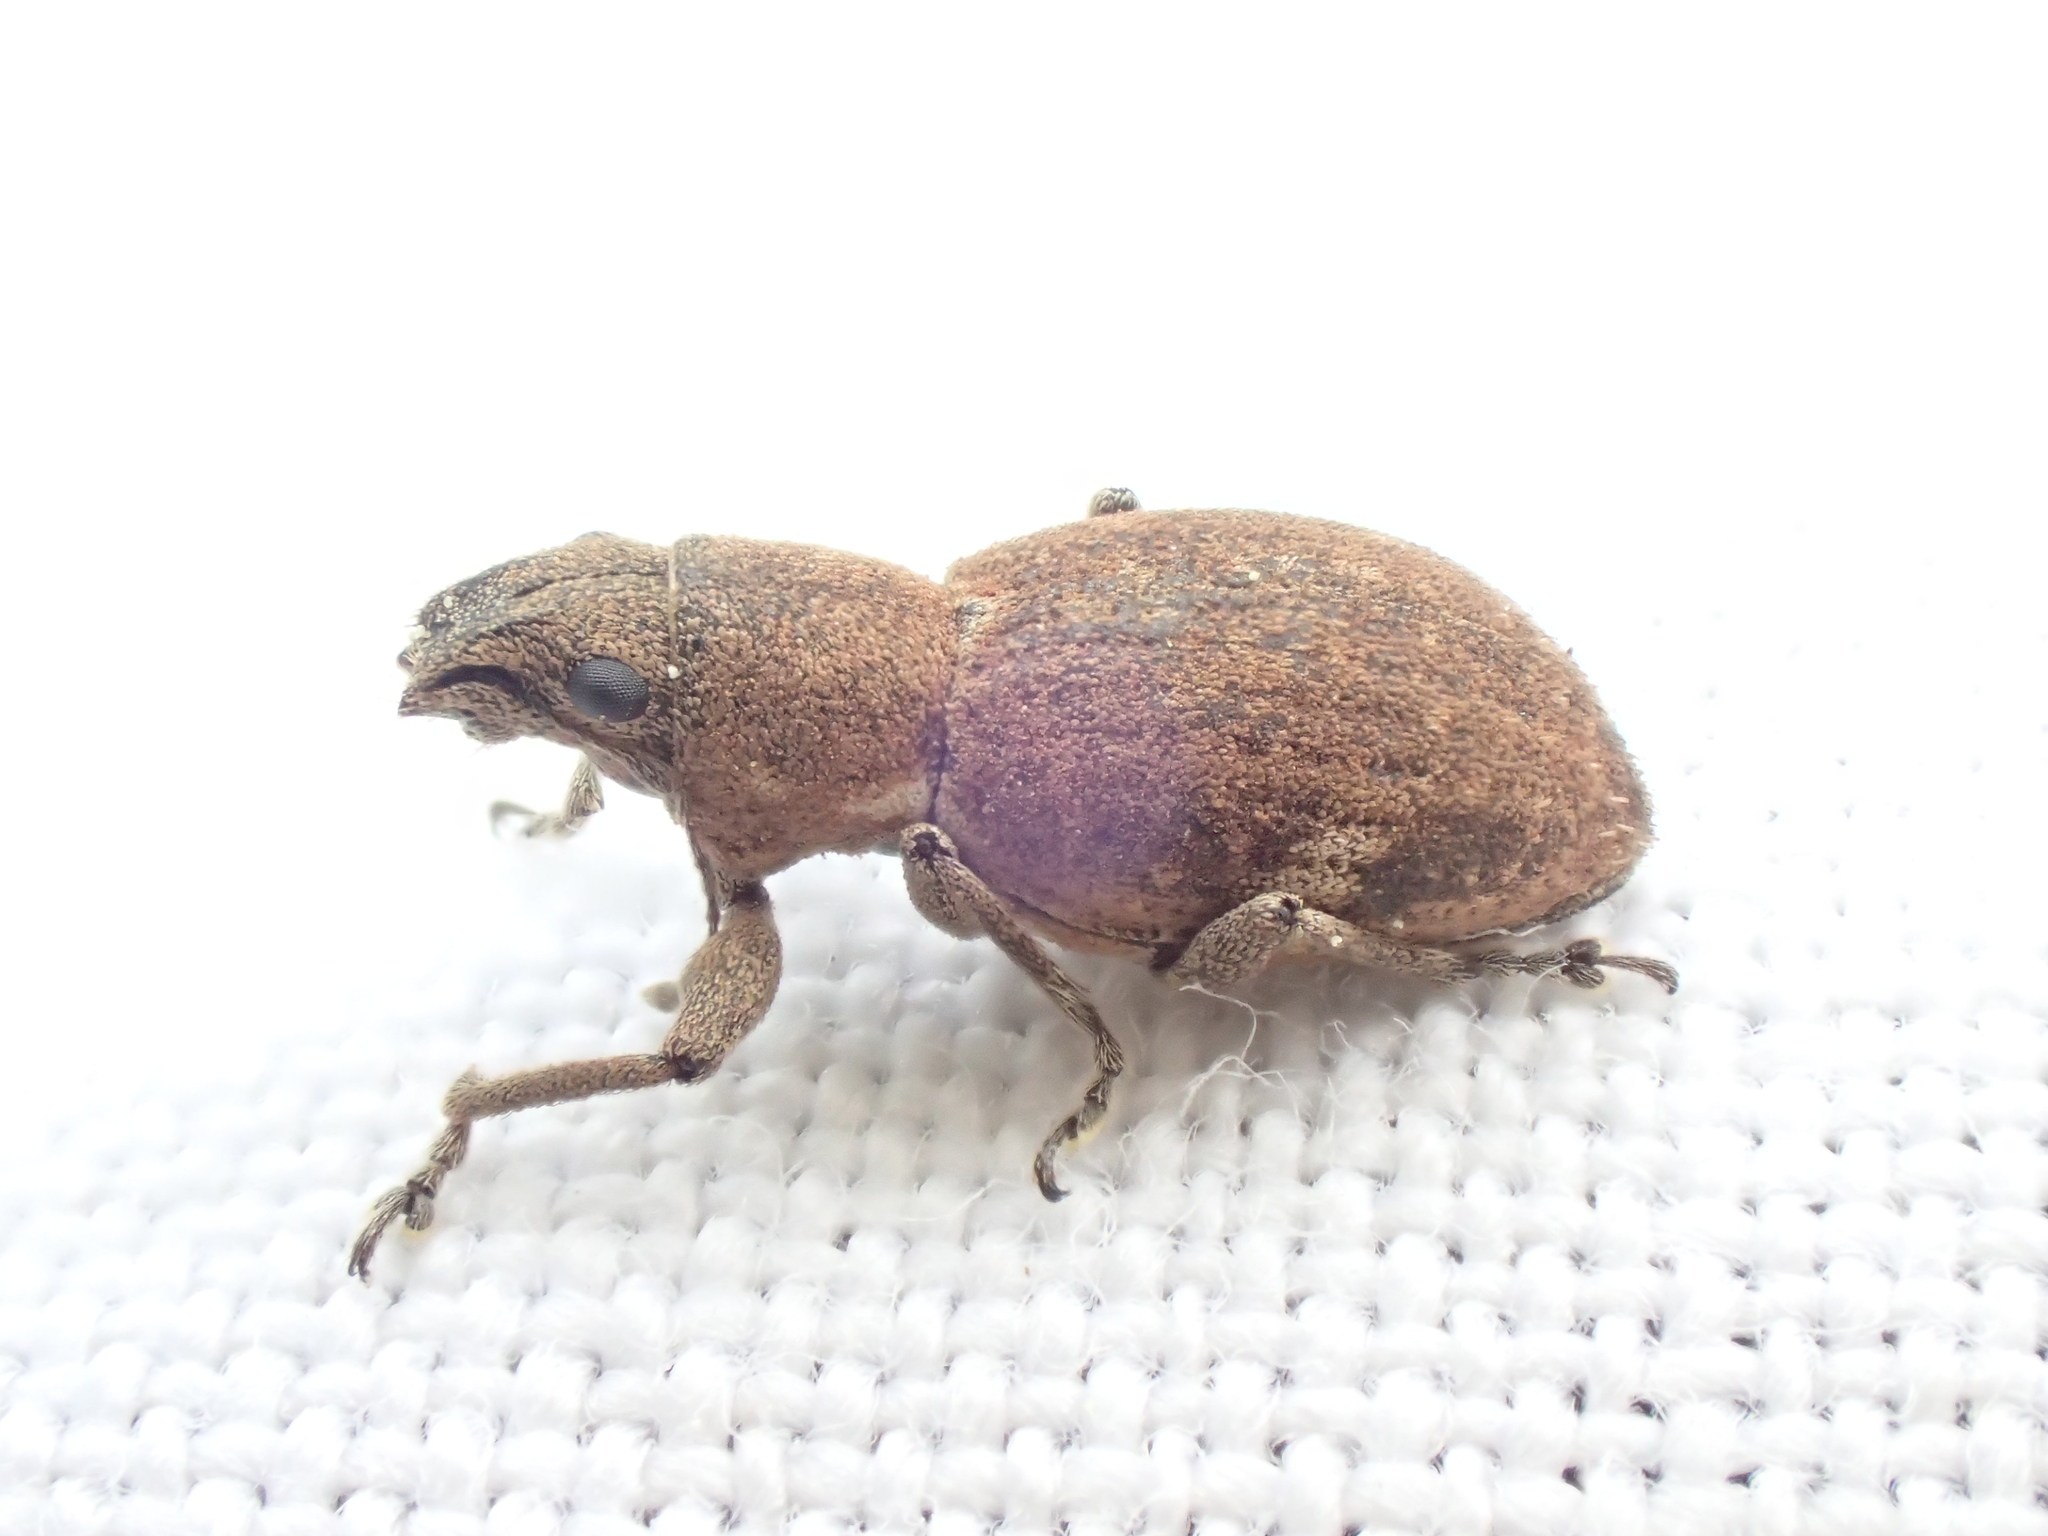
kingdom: Animalia
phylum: Arthropoda
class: Insecta
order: Coleoptera
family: Curculionidae
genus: Naupactus
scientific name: Naupactus cervinus
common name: Fuller rose beetle
